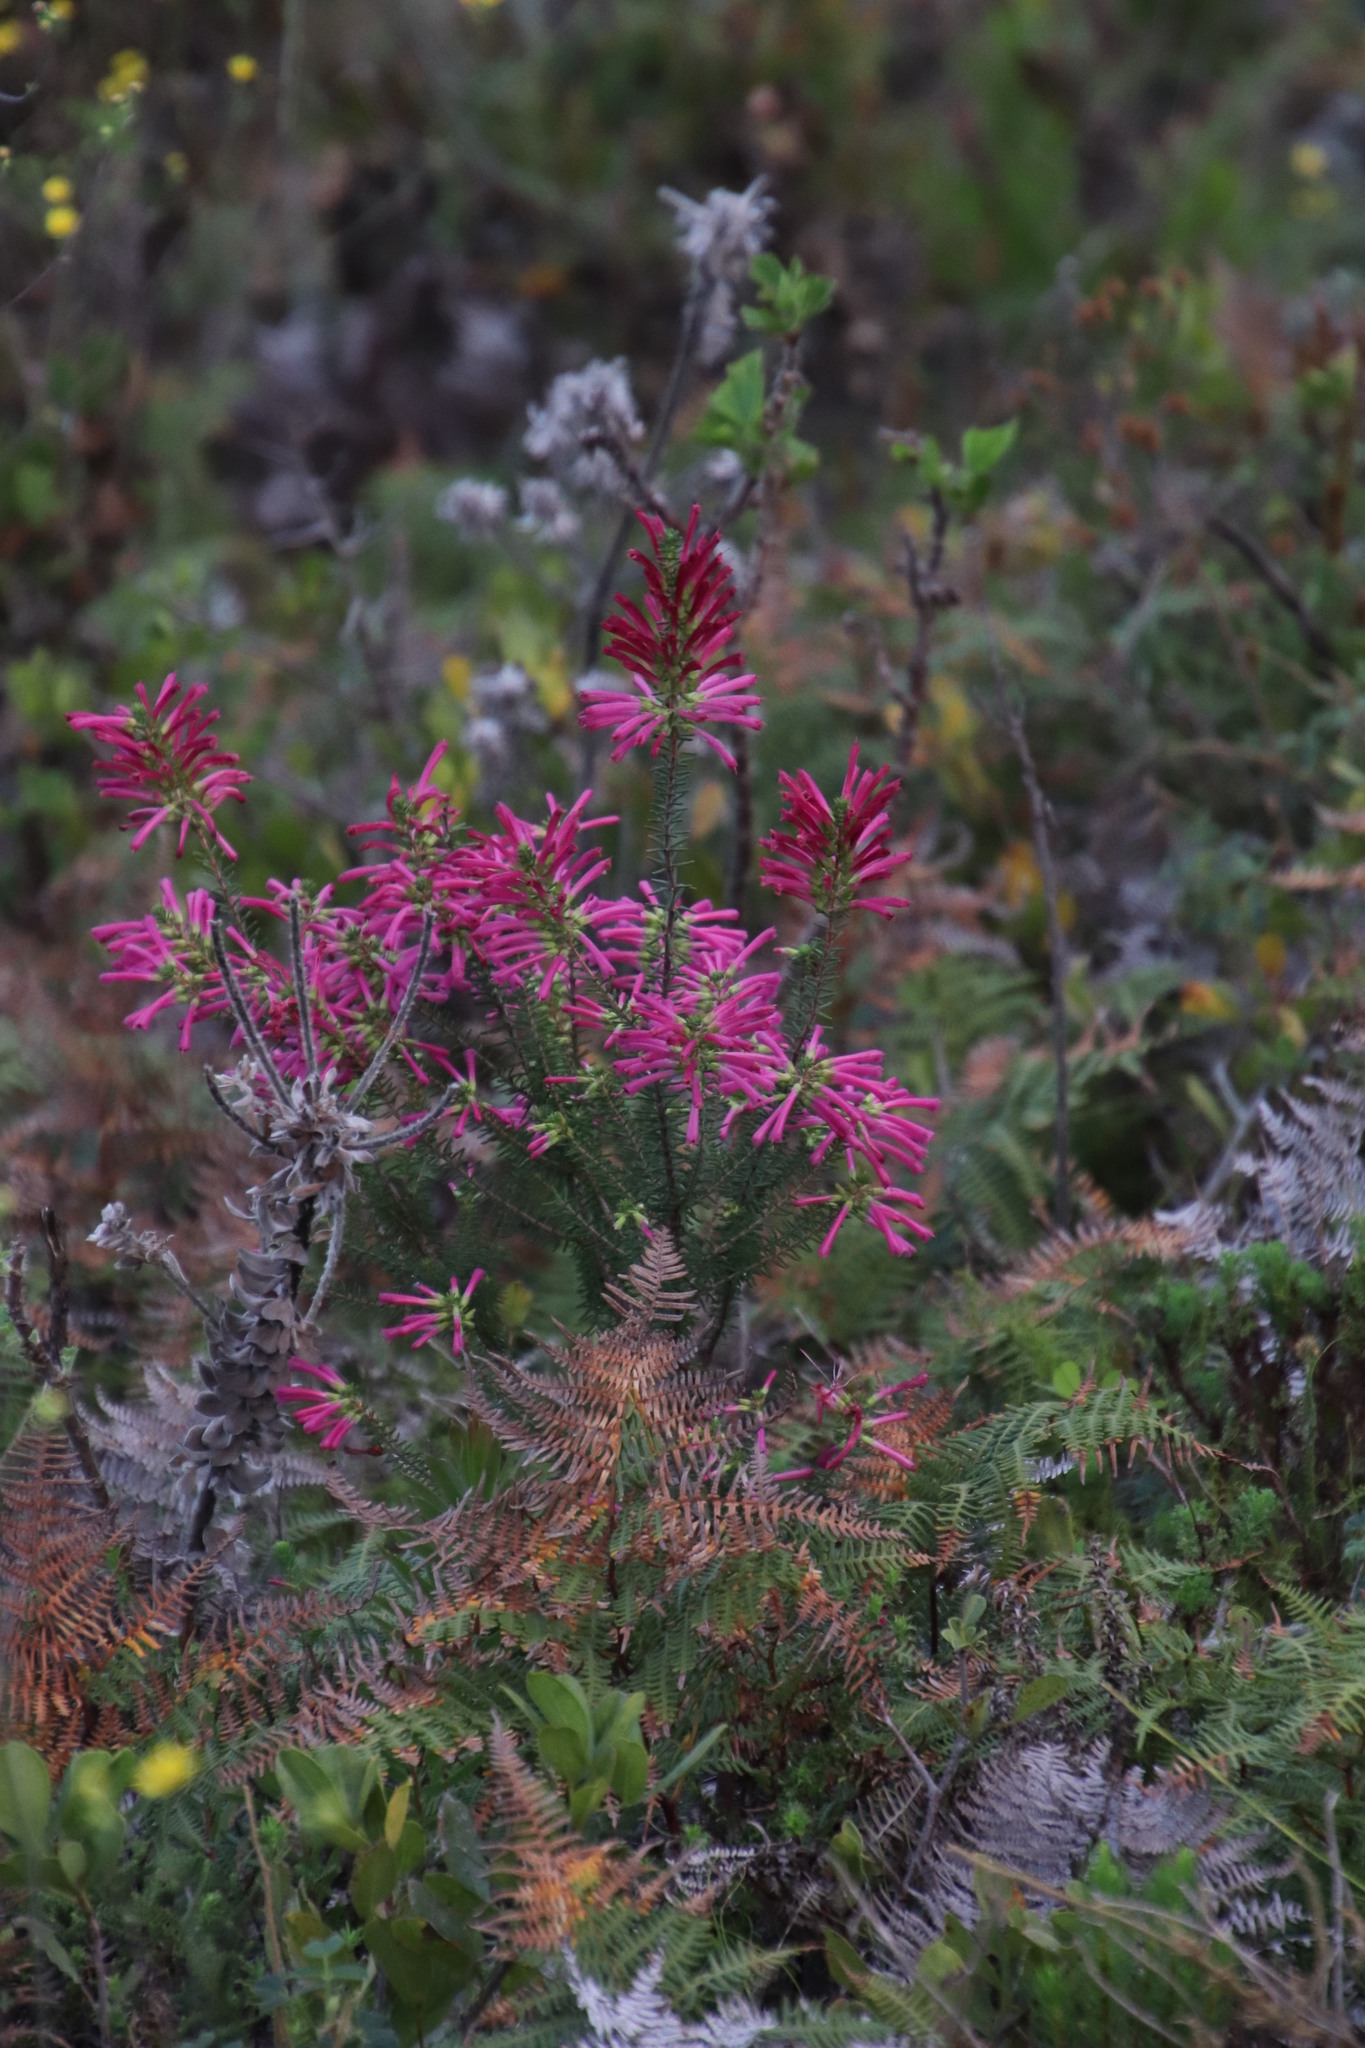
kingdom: Plantae
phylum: Tracheophyta
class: Magnoliopsida
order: Ericales
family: Ericaceae
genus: Erica
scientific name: Erica abietina
